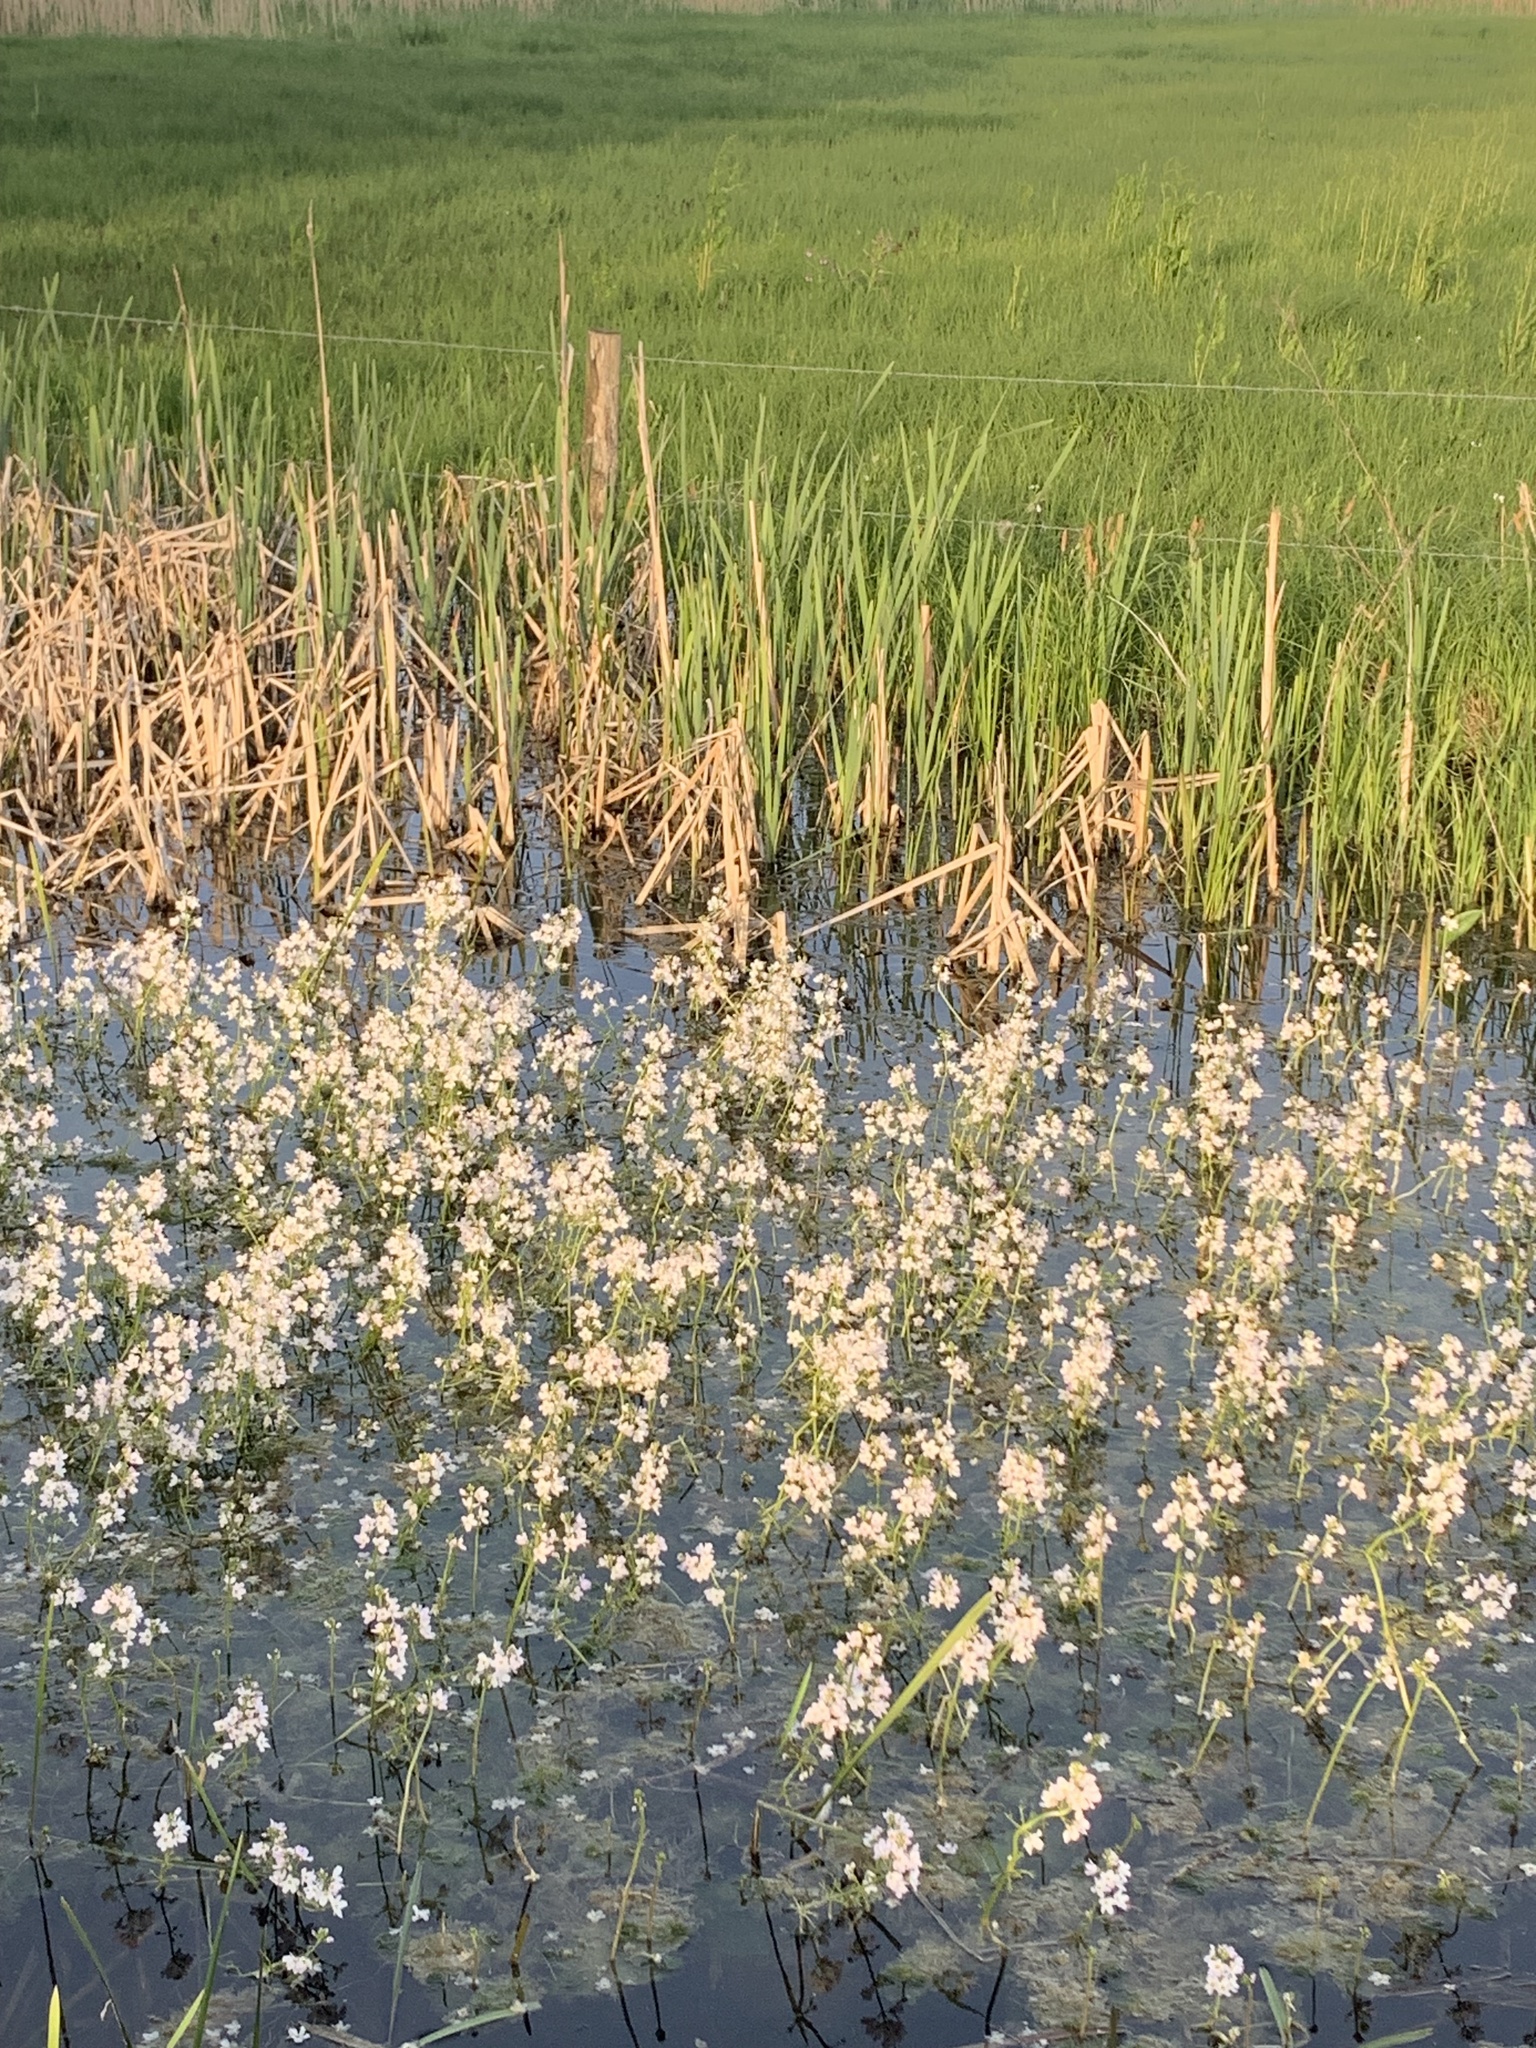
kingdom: Plantae
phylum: Tracheophyta
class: Magnoliopsida
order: Ericales
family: Primulaceae
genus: Hottonia
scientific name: Hottonia palustris
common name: Water-violet
